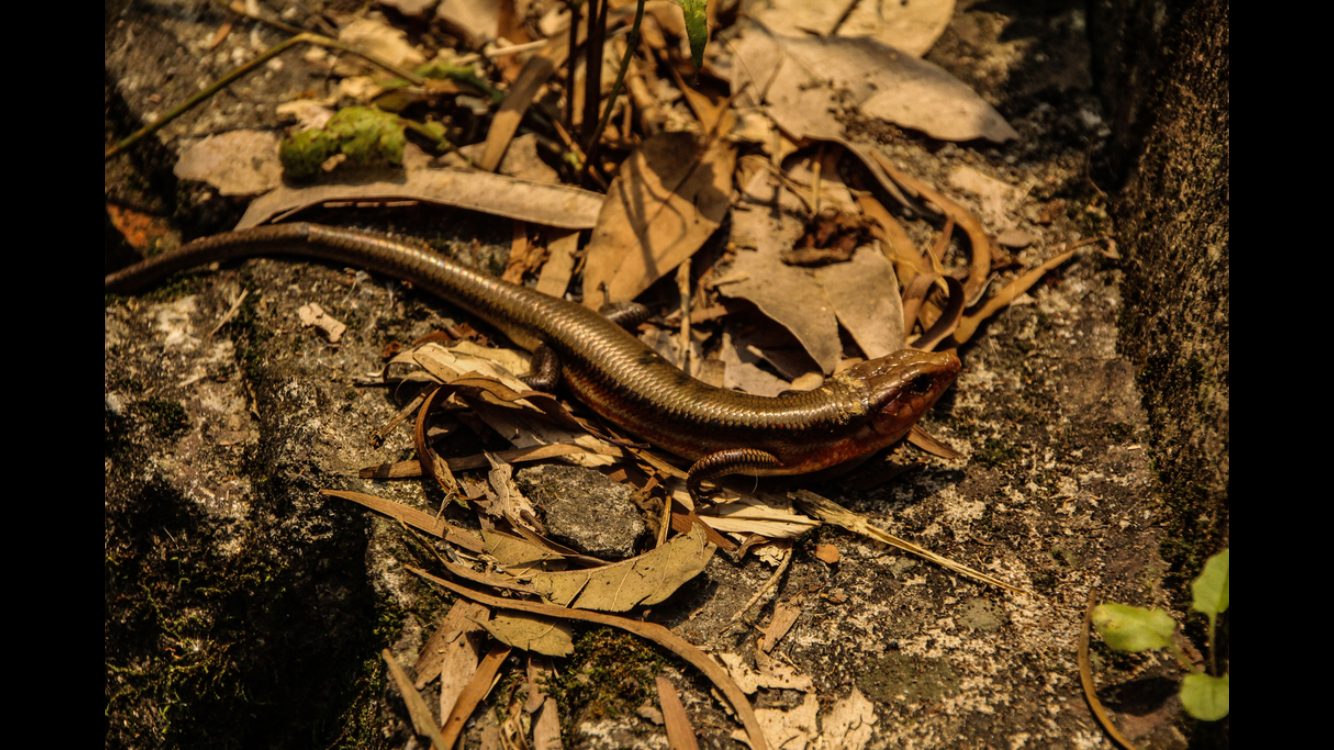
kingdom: Animalia
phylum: Chordata
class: Squamata
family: Scincidae
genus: Plestiodon
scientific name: Plestiodon elegans
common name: Shanghai elegant skink
